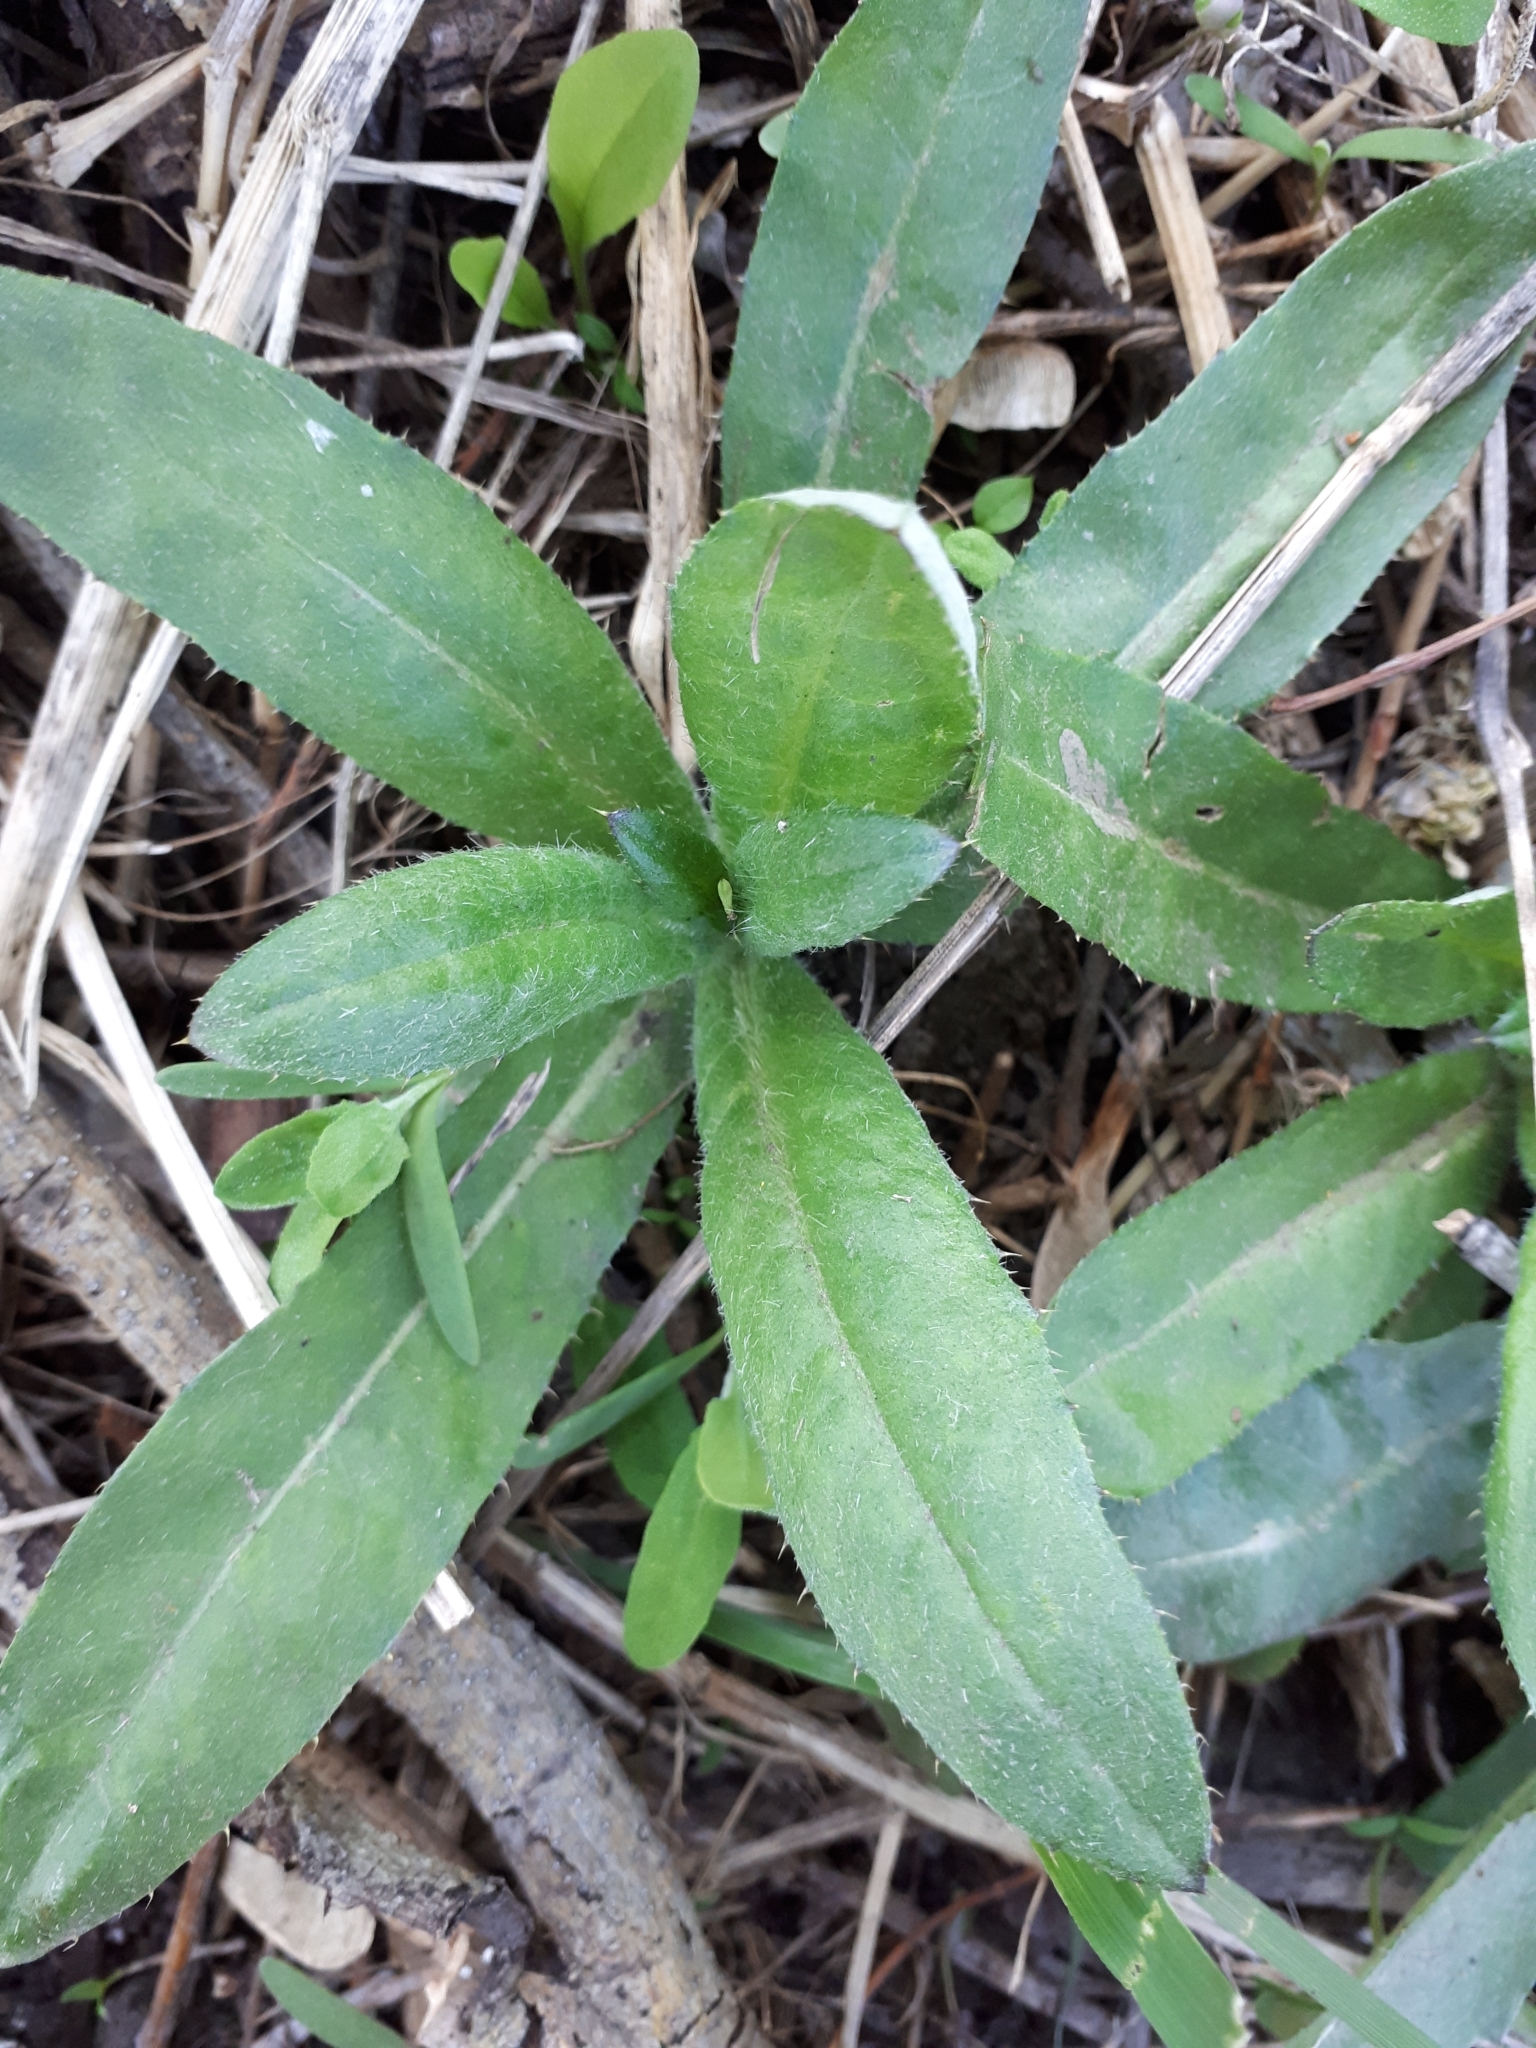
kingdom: Plantae
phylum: Tracheophyta
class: Magnoliopsida
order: Asterales
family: Asteraceae
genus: Cirsium
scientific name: Cirsium arvense
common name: Creeping thistle
